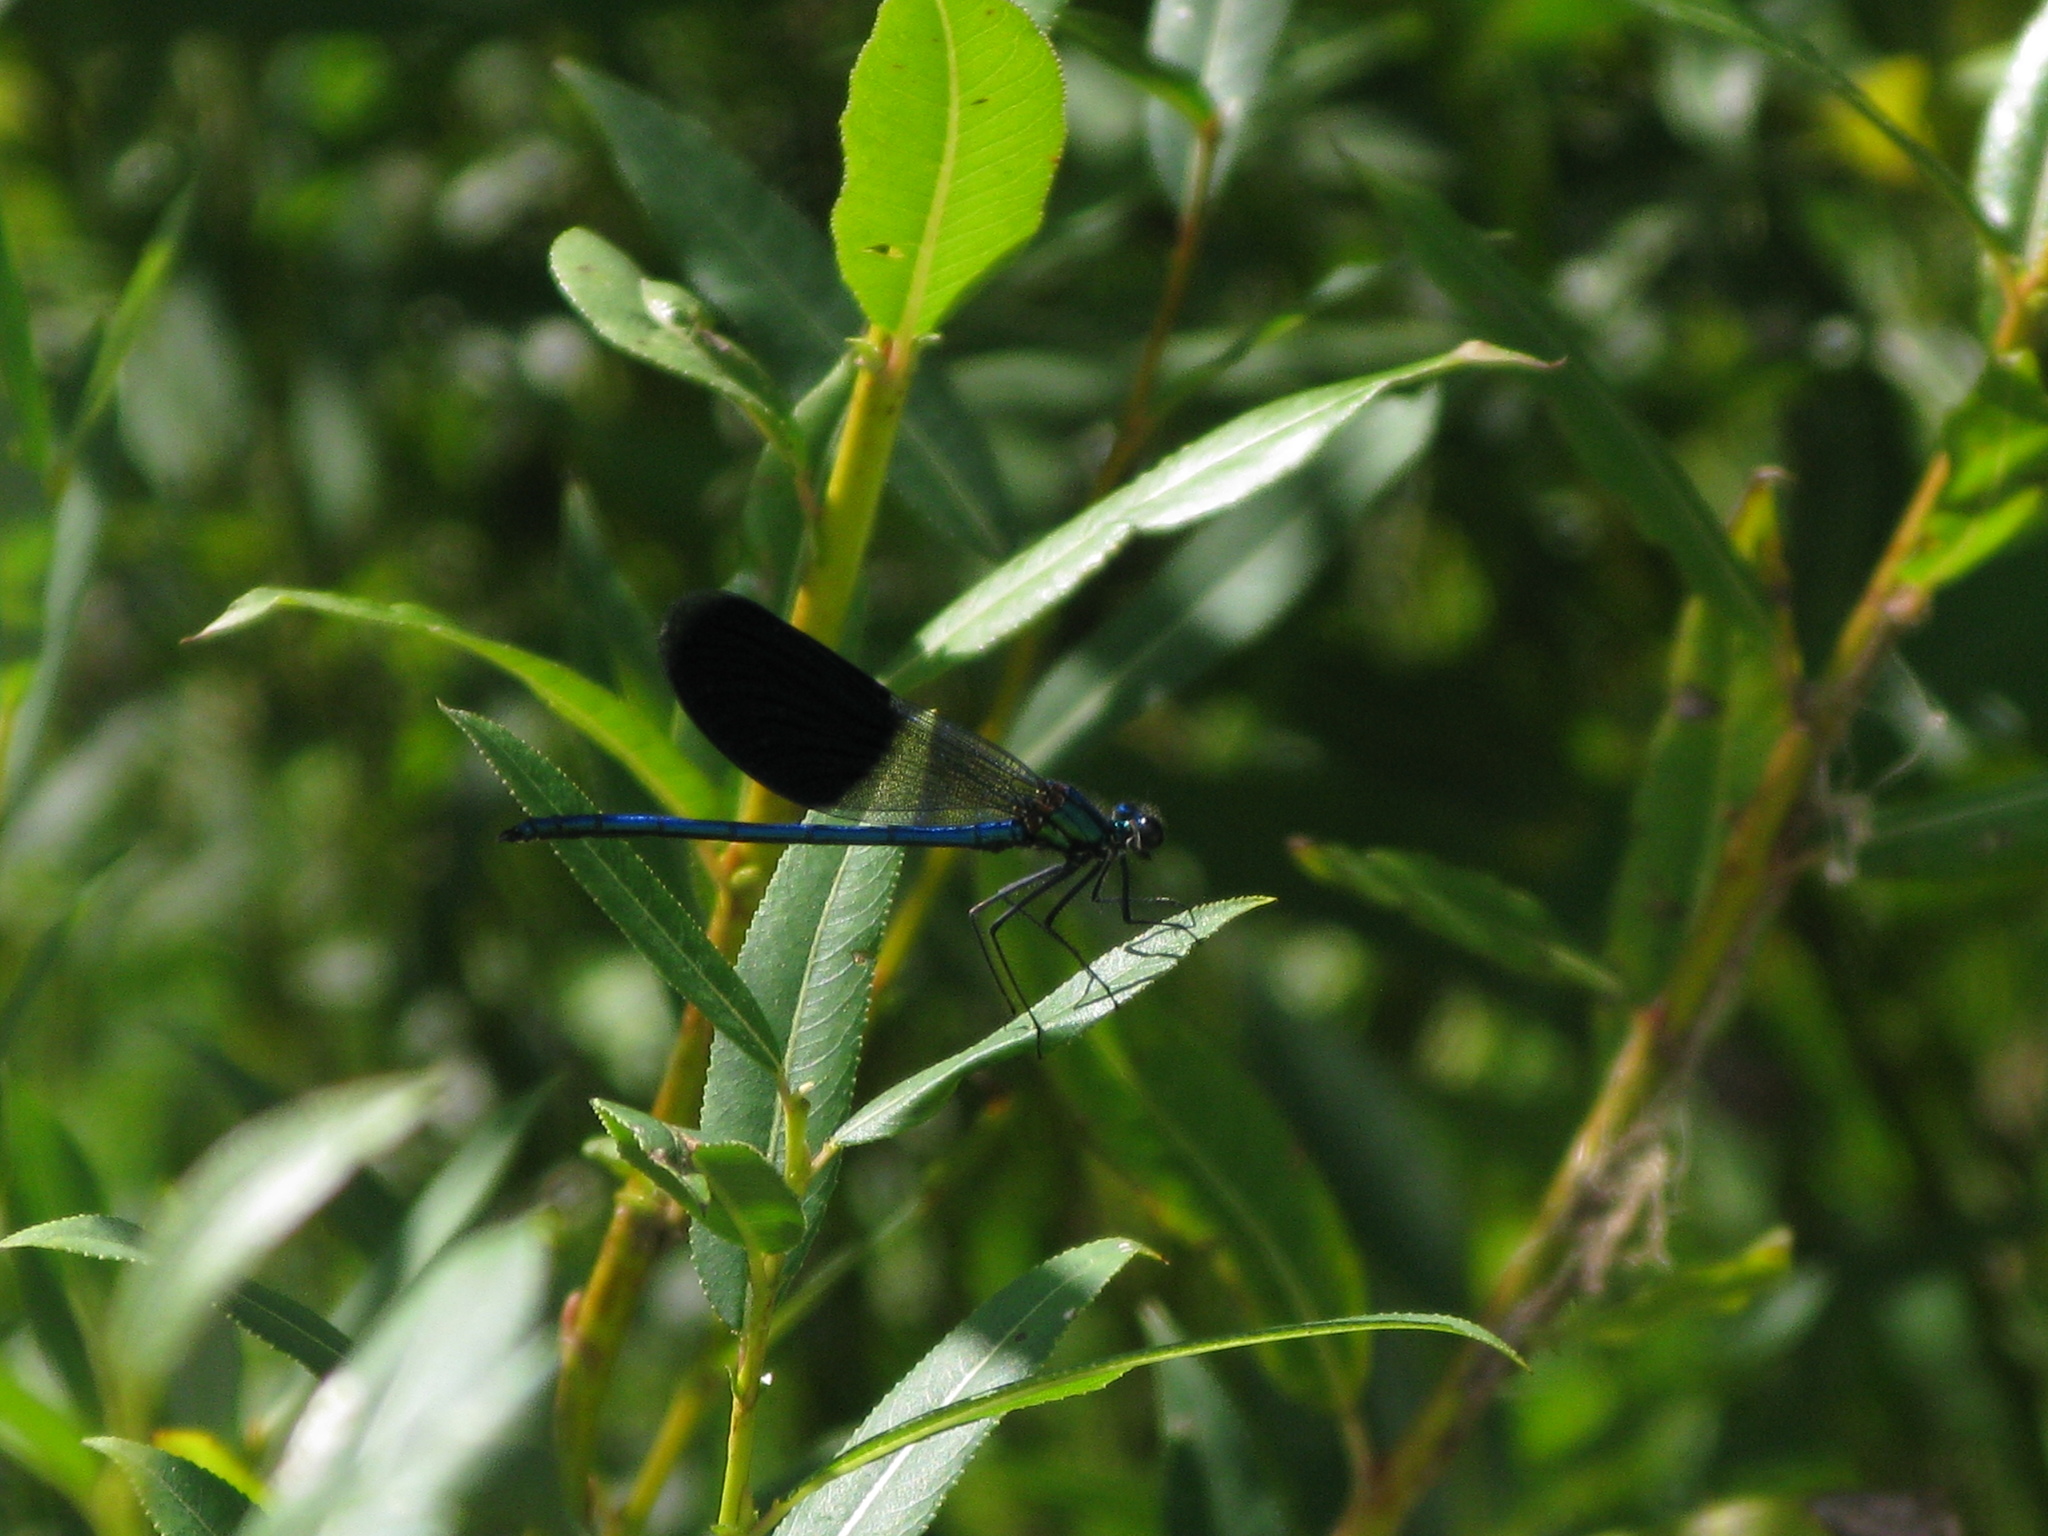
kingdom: Animalia
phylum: Arthropoda
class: Insecta
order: Odonata
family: Calopterygidae
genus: Calopteryx
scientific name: Calopteryx splendens
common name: Banded demoiselle
